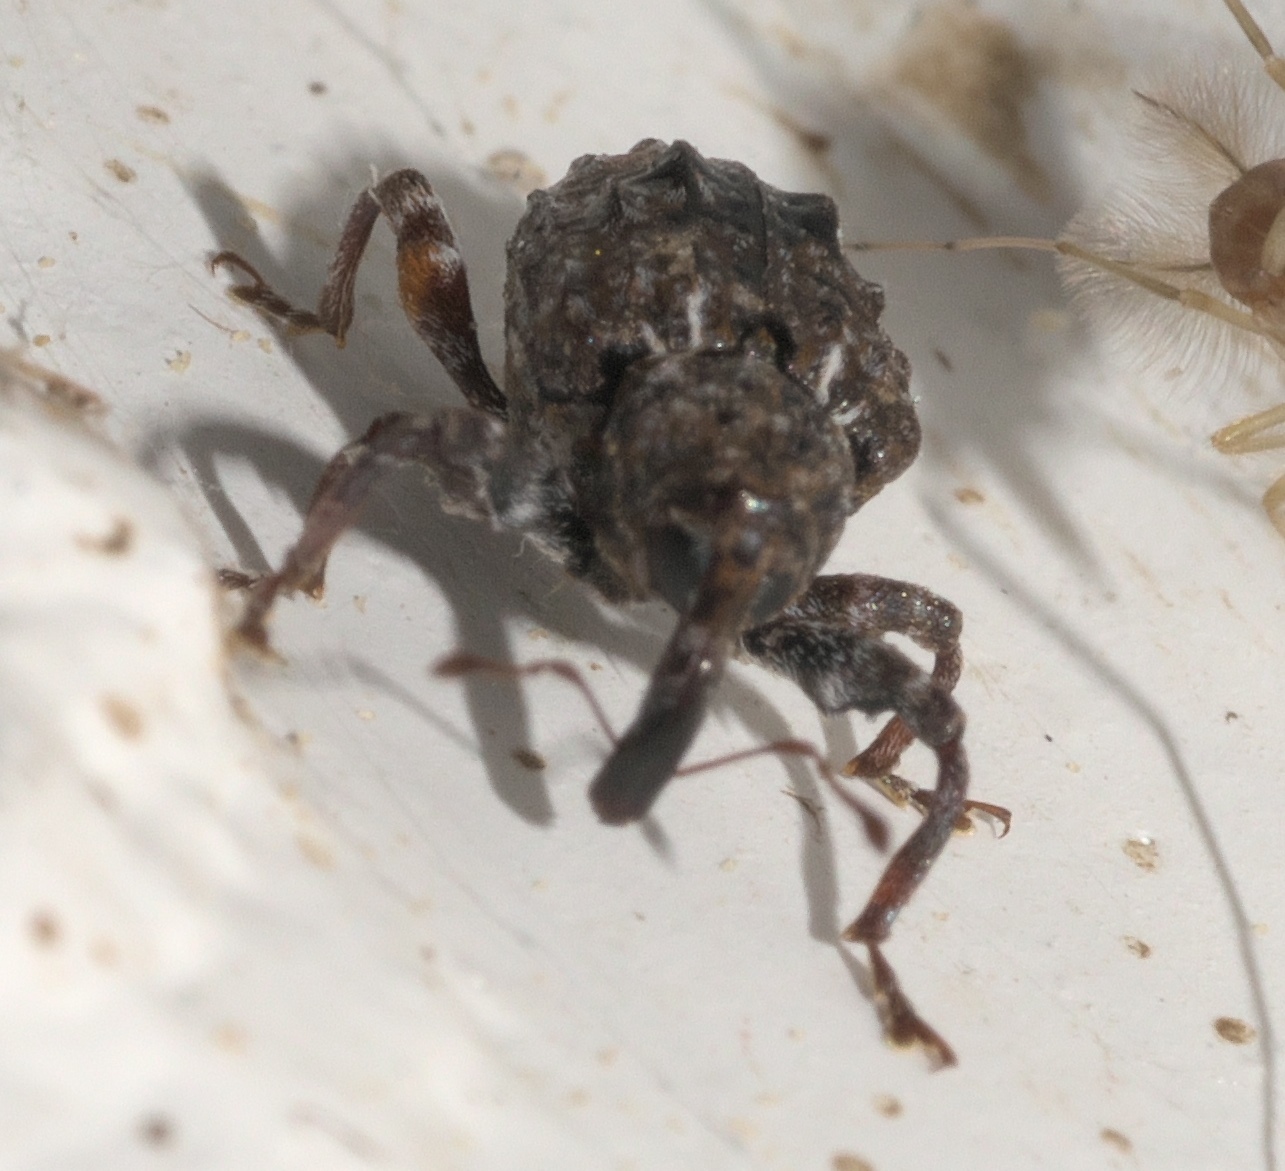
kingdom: Animalia
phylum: Arthropoda
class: Insecta
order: Coleoptera
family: Curculionidae
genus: Conotrachelus
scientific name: Conotrachelus nenuphar
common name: Plum curculio
